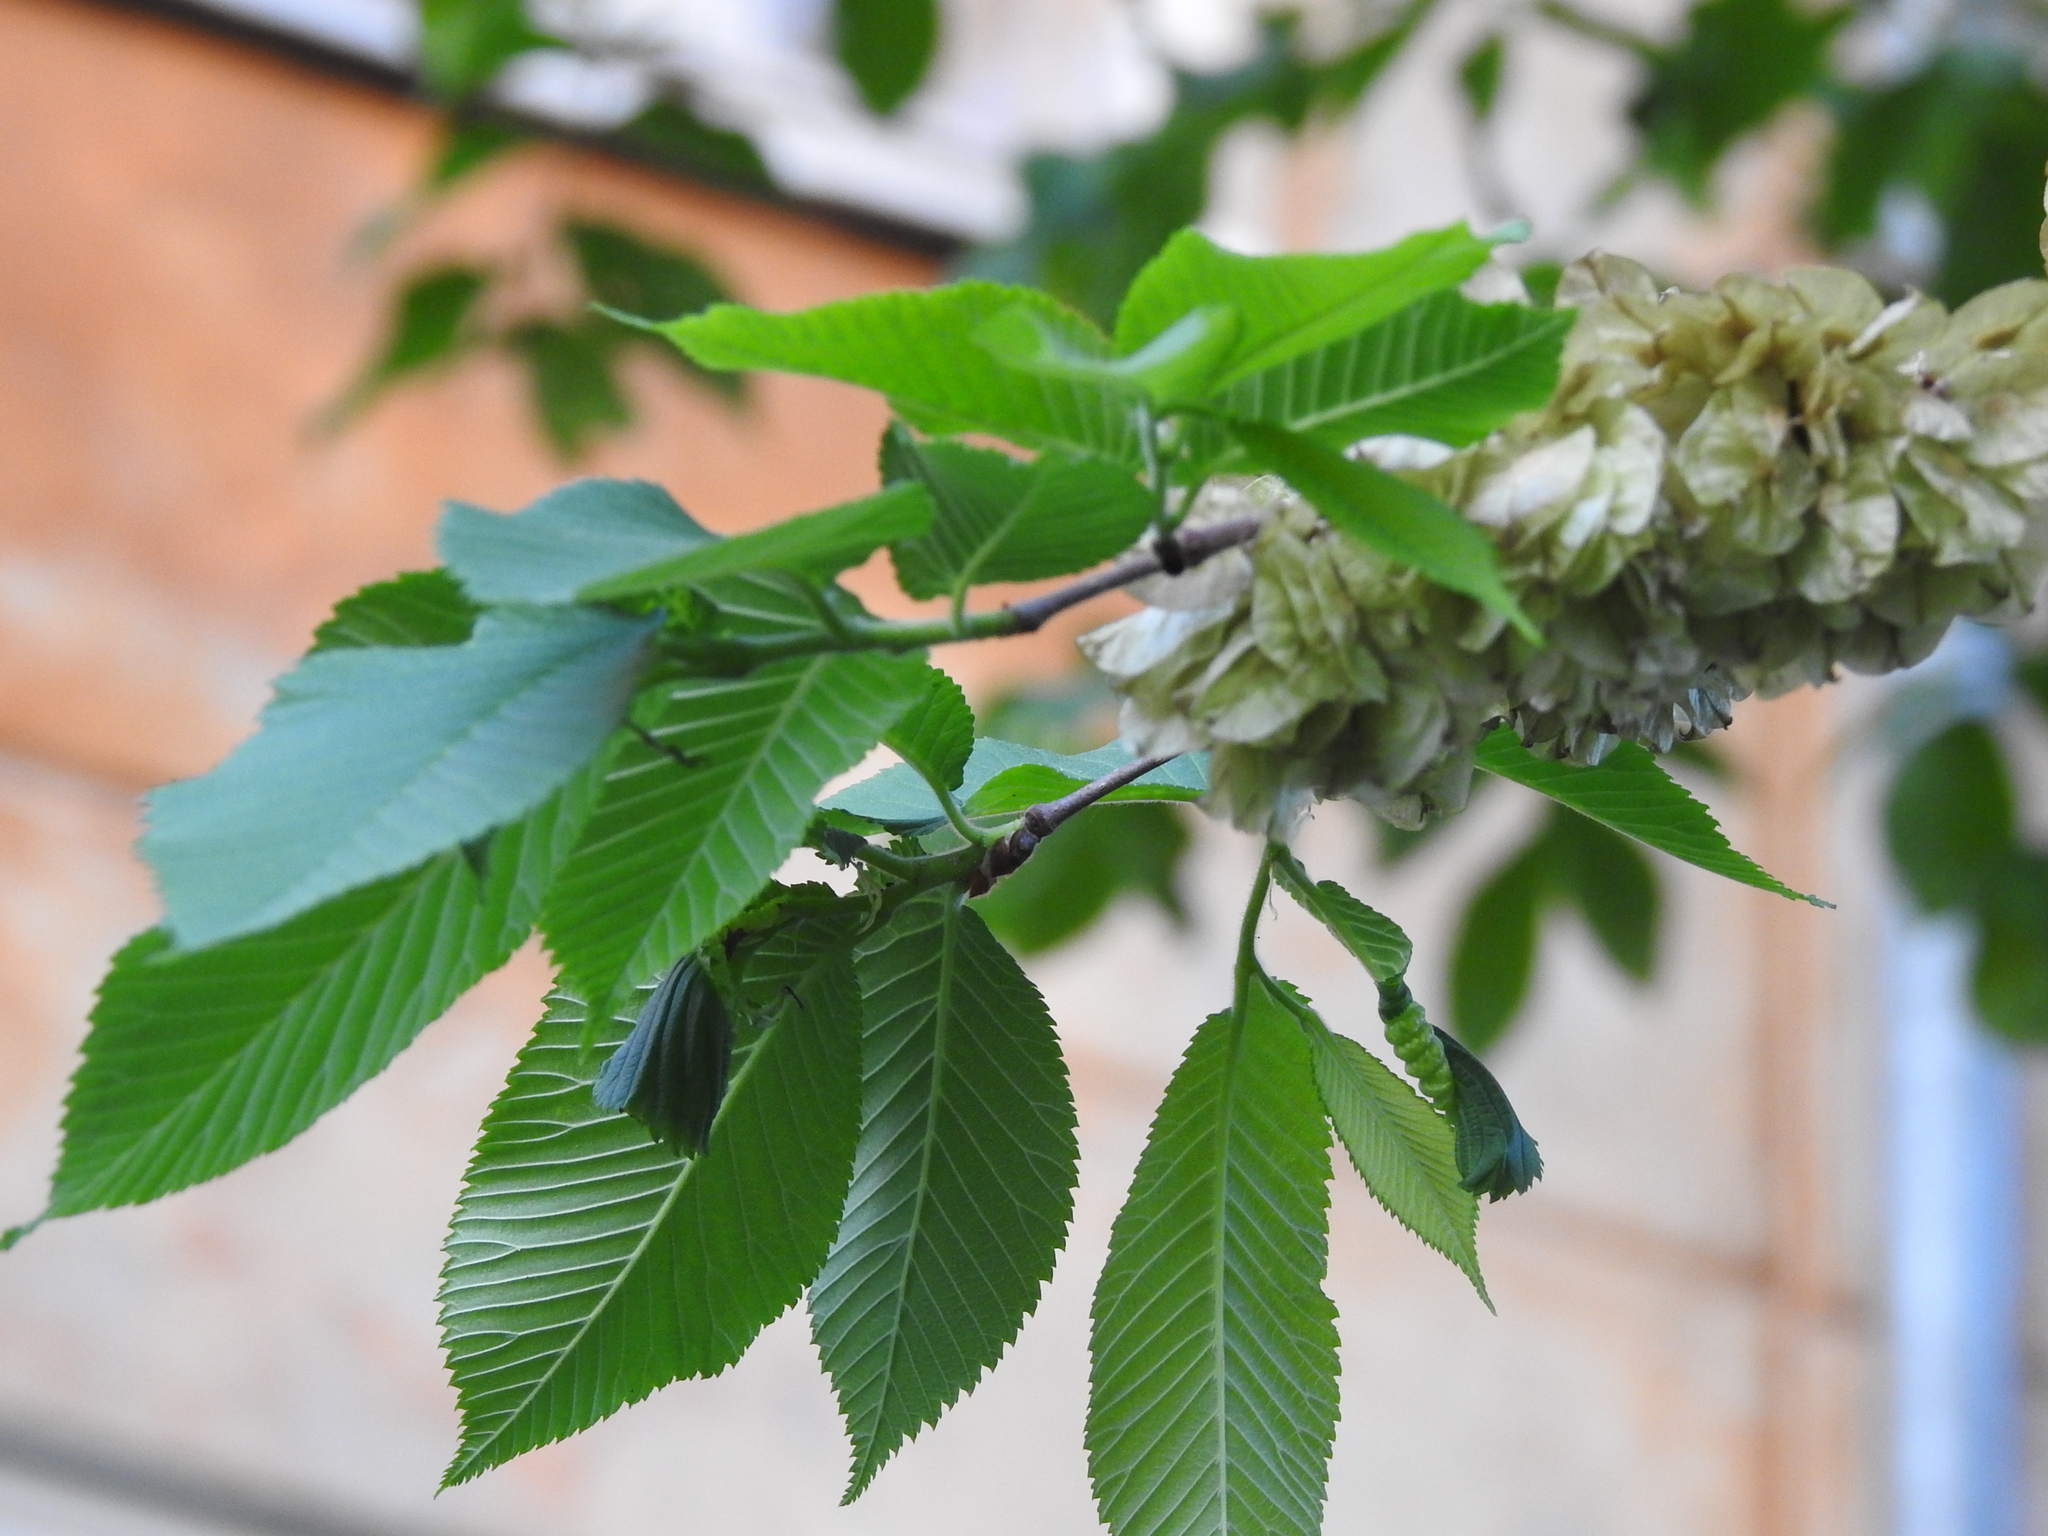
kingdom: Plantae
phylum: Tracheophyta
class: Magnoliopsida
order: Rosales
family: Ulmaceae
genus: Ulmus
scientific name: Ulmus glabra
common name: Wych elm
